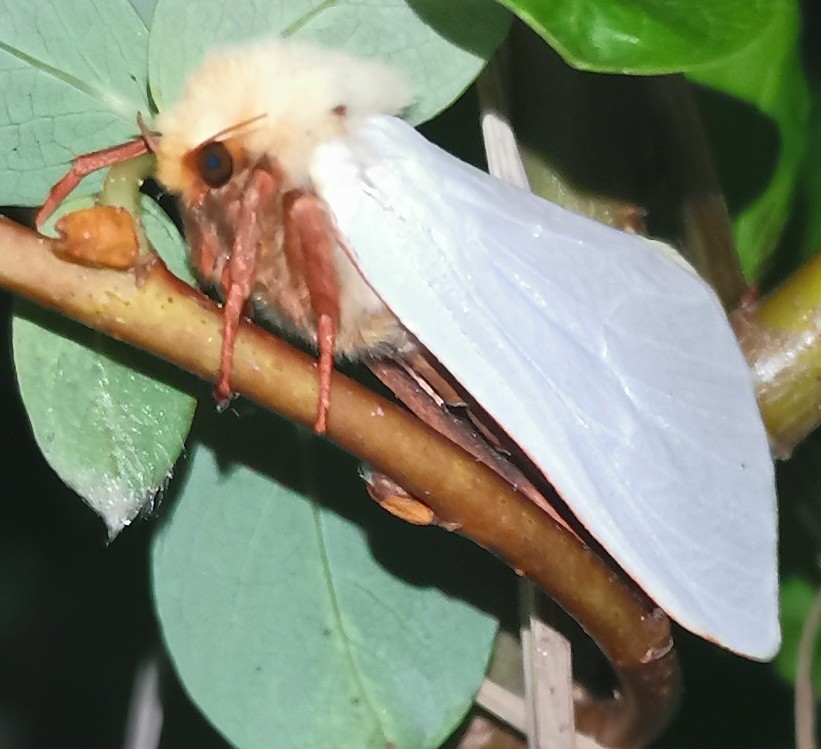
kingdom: Animalia
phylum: Arthropoda
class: Insecta
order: Lepidoptera
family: Hepialidae
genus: Hepialus
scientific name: Hepialus humuli
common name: Ghost moth
